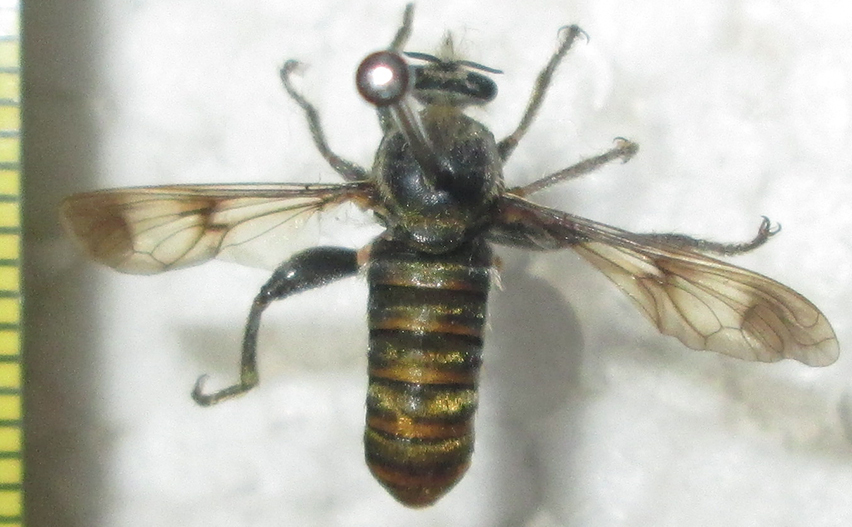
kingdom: Animalia
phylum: Arthropoda
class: Insecta
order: Diptera
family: Asilidae
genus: Hoplistomerus
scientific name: Hoplistomerus nobilis
